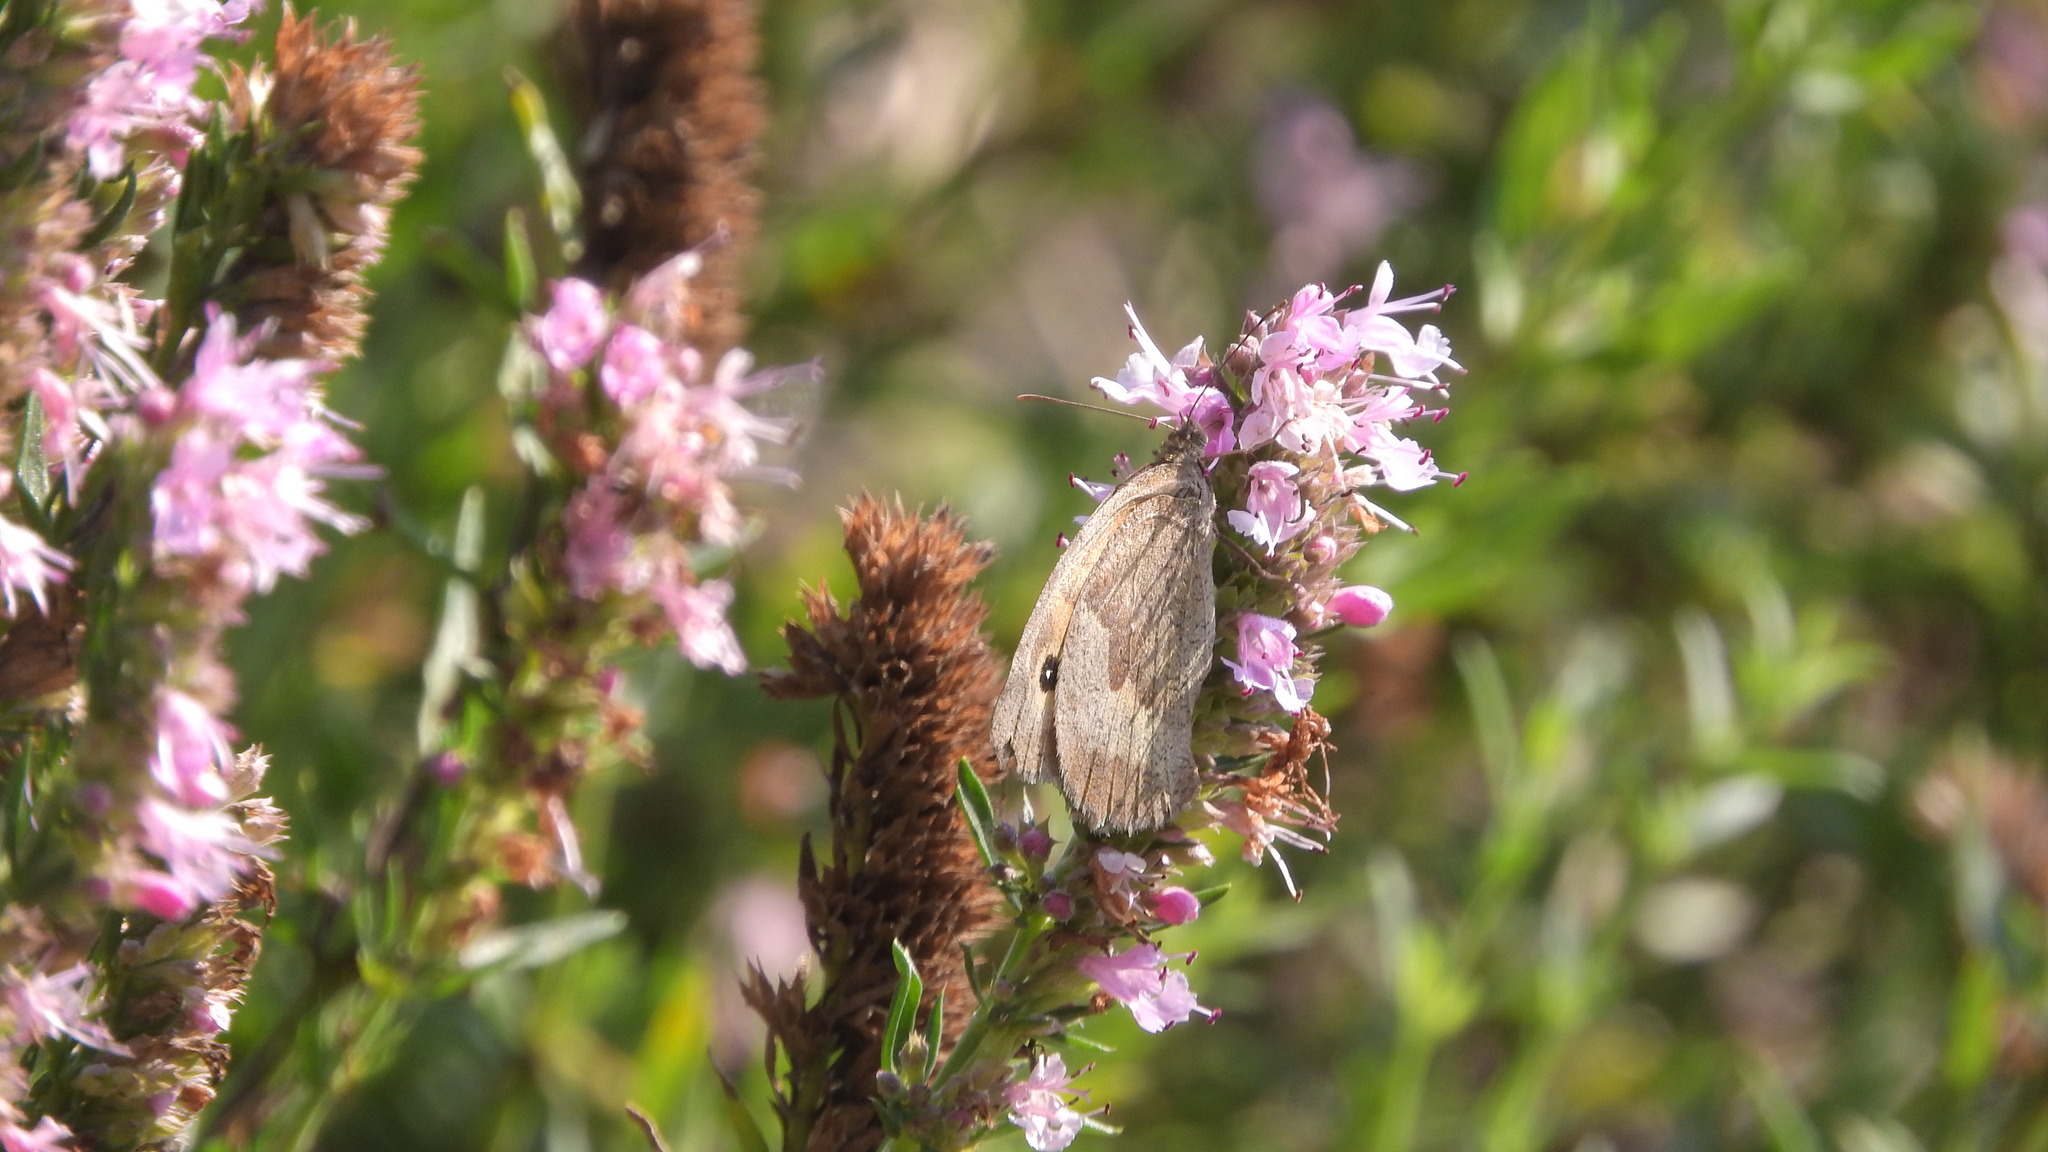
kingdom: Animalia
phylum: Arthropoda
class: Insecta
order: Lepidoptera
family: Nymphalidae
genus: Maniola
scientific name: Maniola jurtina
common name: Meadow brown
